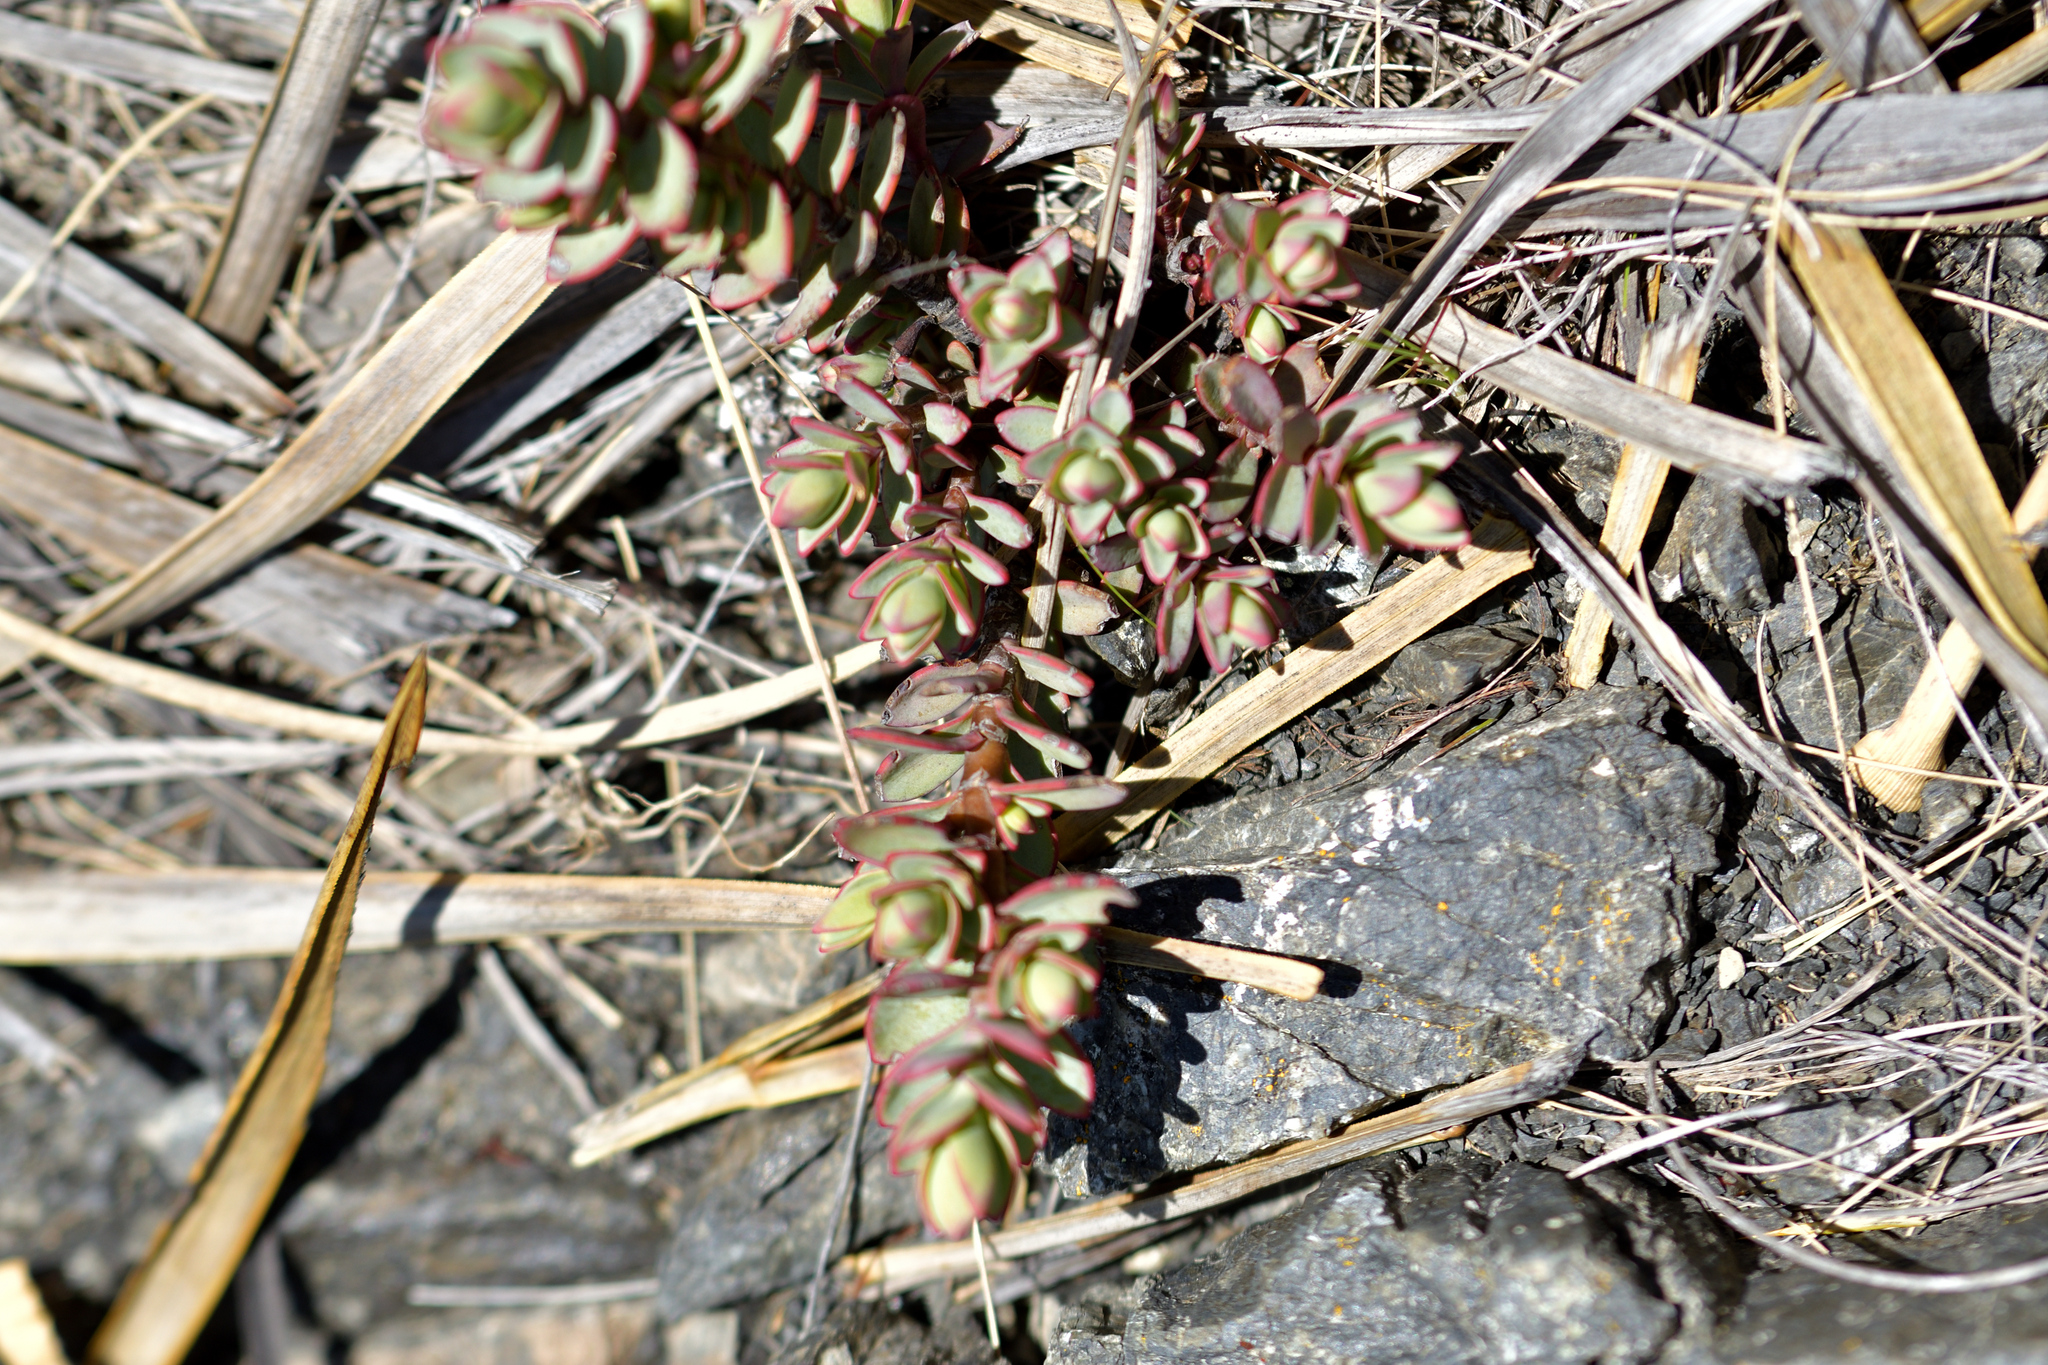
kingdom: Plantae
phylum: Tracheophyta
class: Magnoliopsida
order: Lamiales
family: Plantaginaceae
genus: Veronica
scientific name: Veronica pinguifolia
